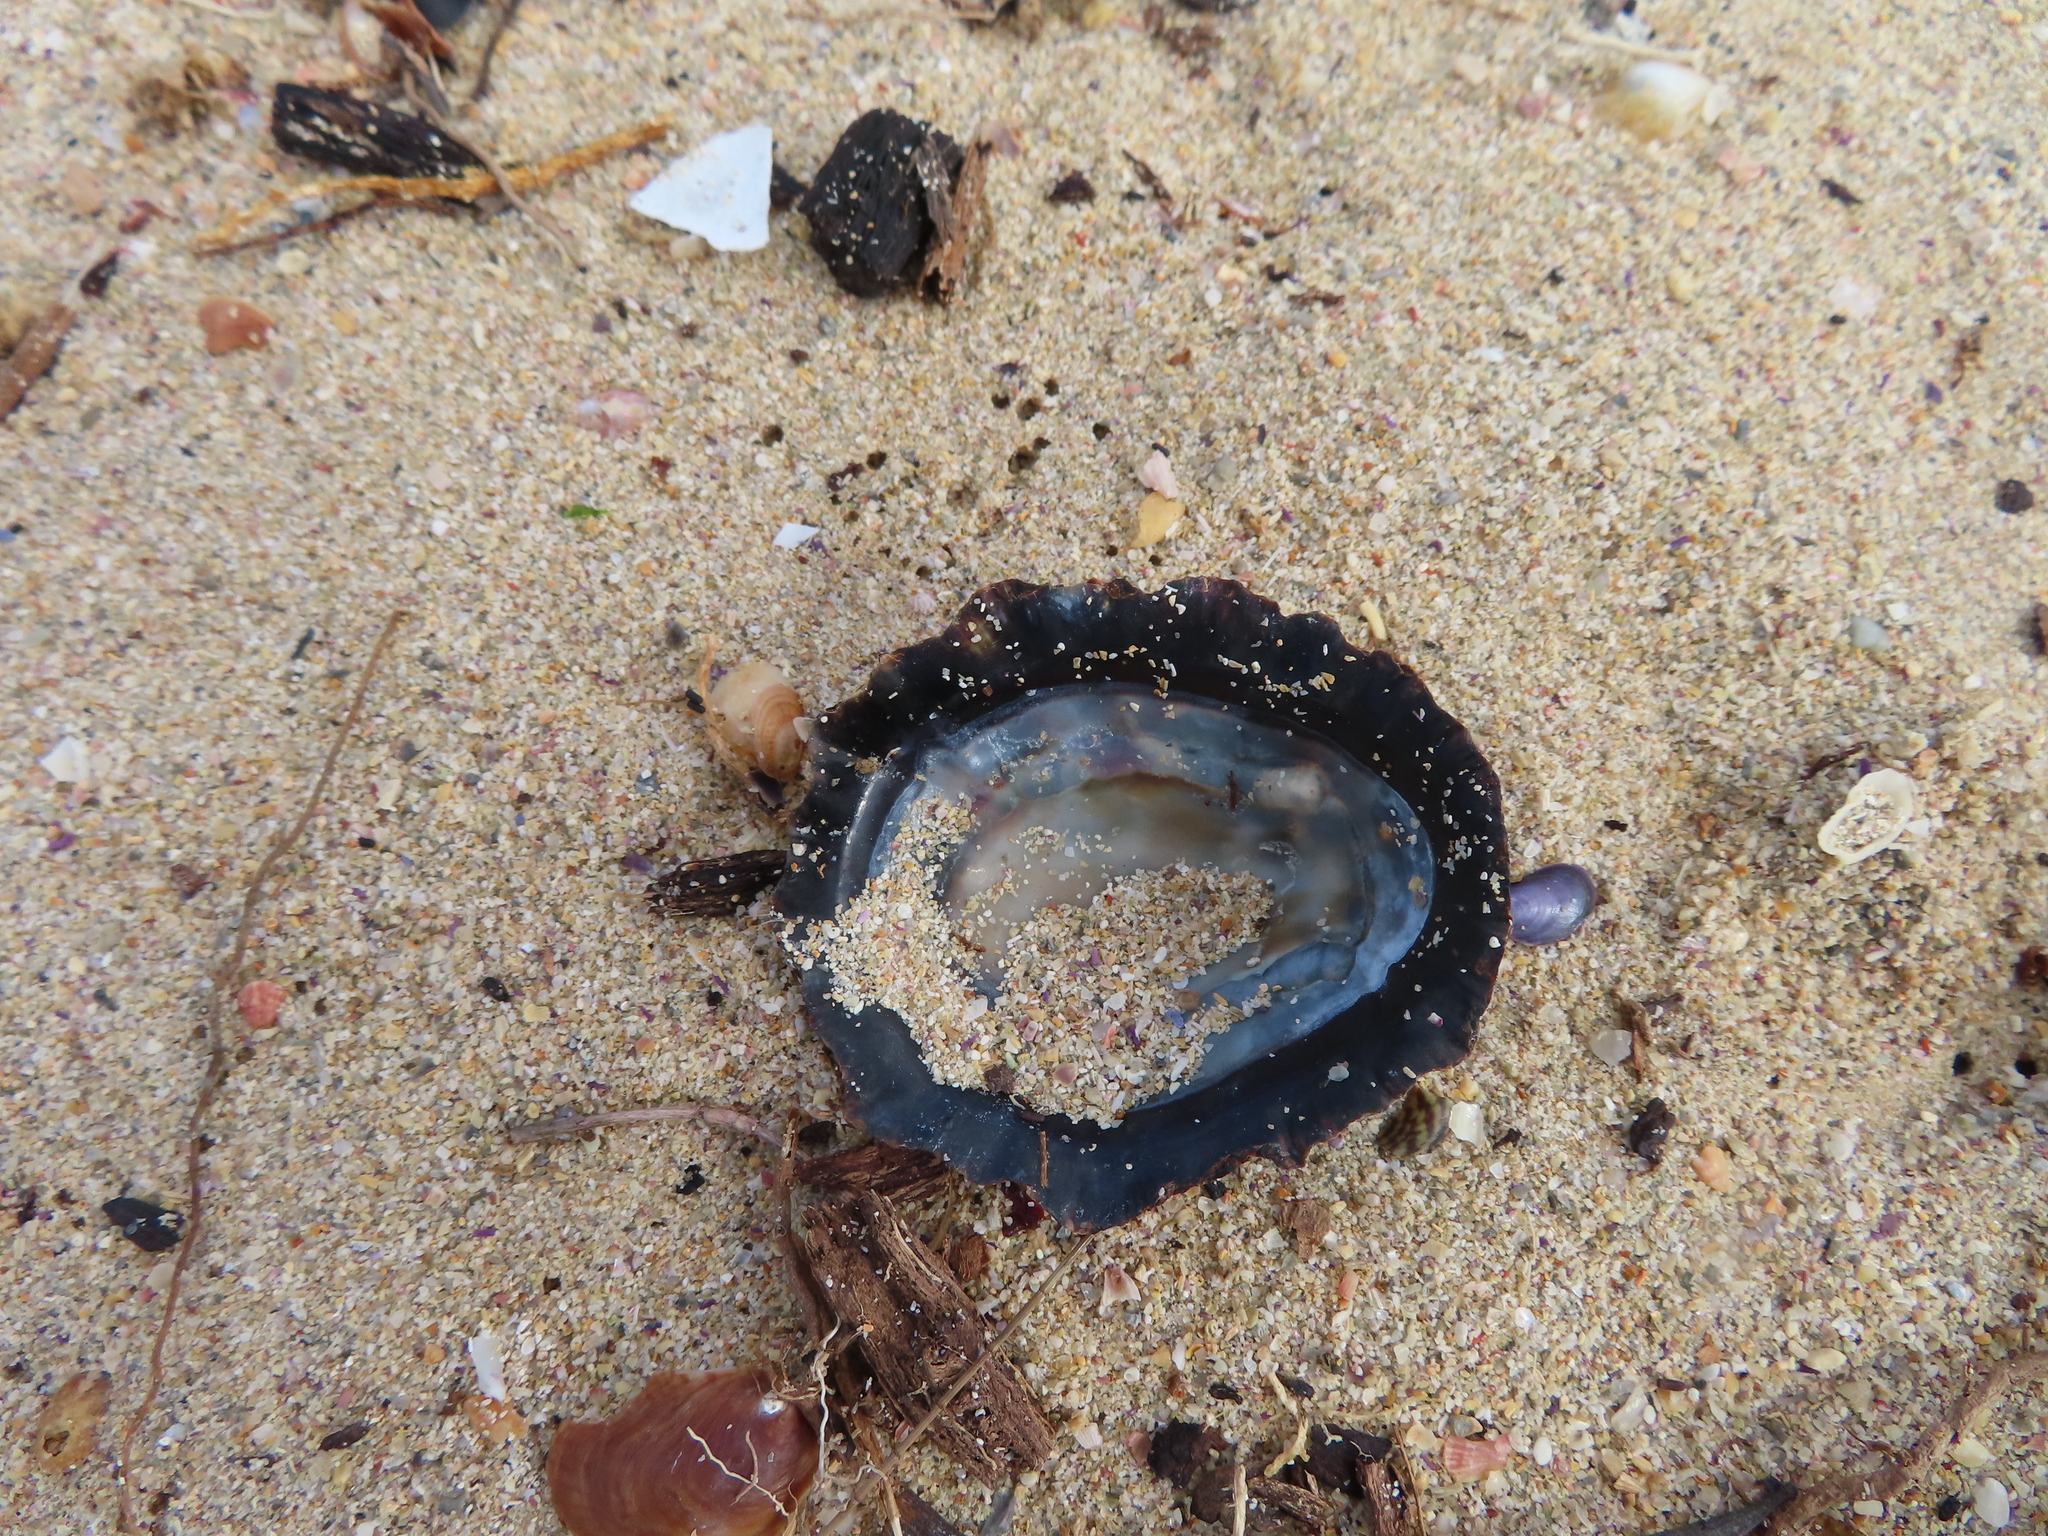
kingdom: Animalia
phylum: Mollusca
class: Gastropoda
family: Patellidae
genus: Cymbula
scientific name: Cymbula oculus
